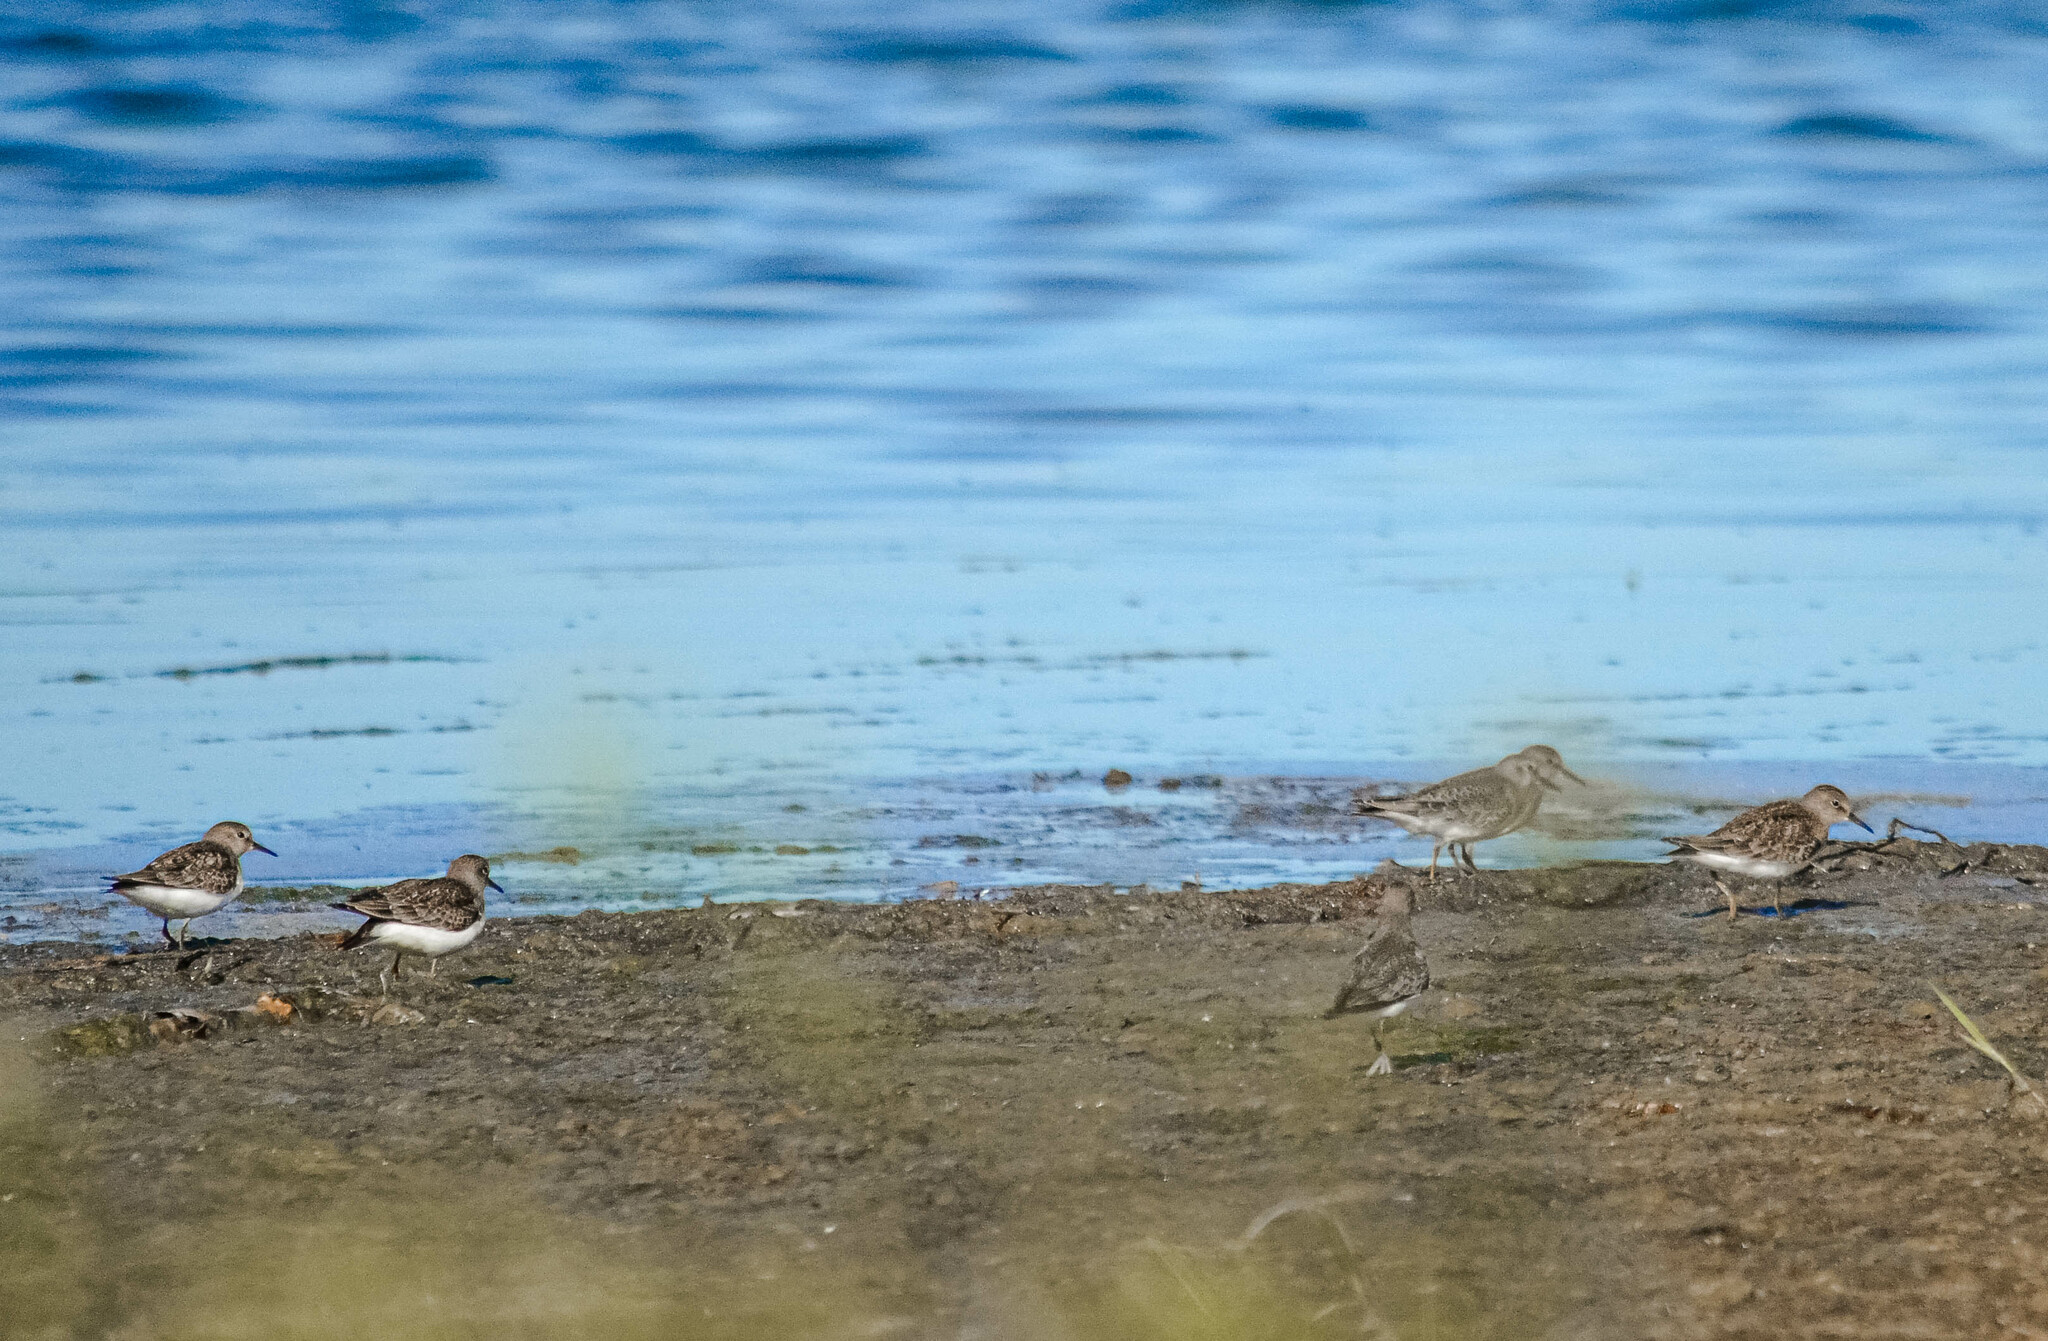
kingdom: Animalia
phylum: Chordata
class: Aves
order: Charadriiformes
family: Scolopacidae
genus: Calidris
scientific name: Calidris temminckii
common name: Temminck's stint
